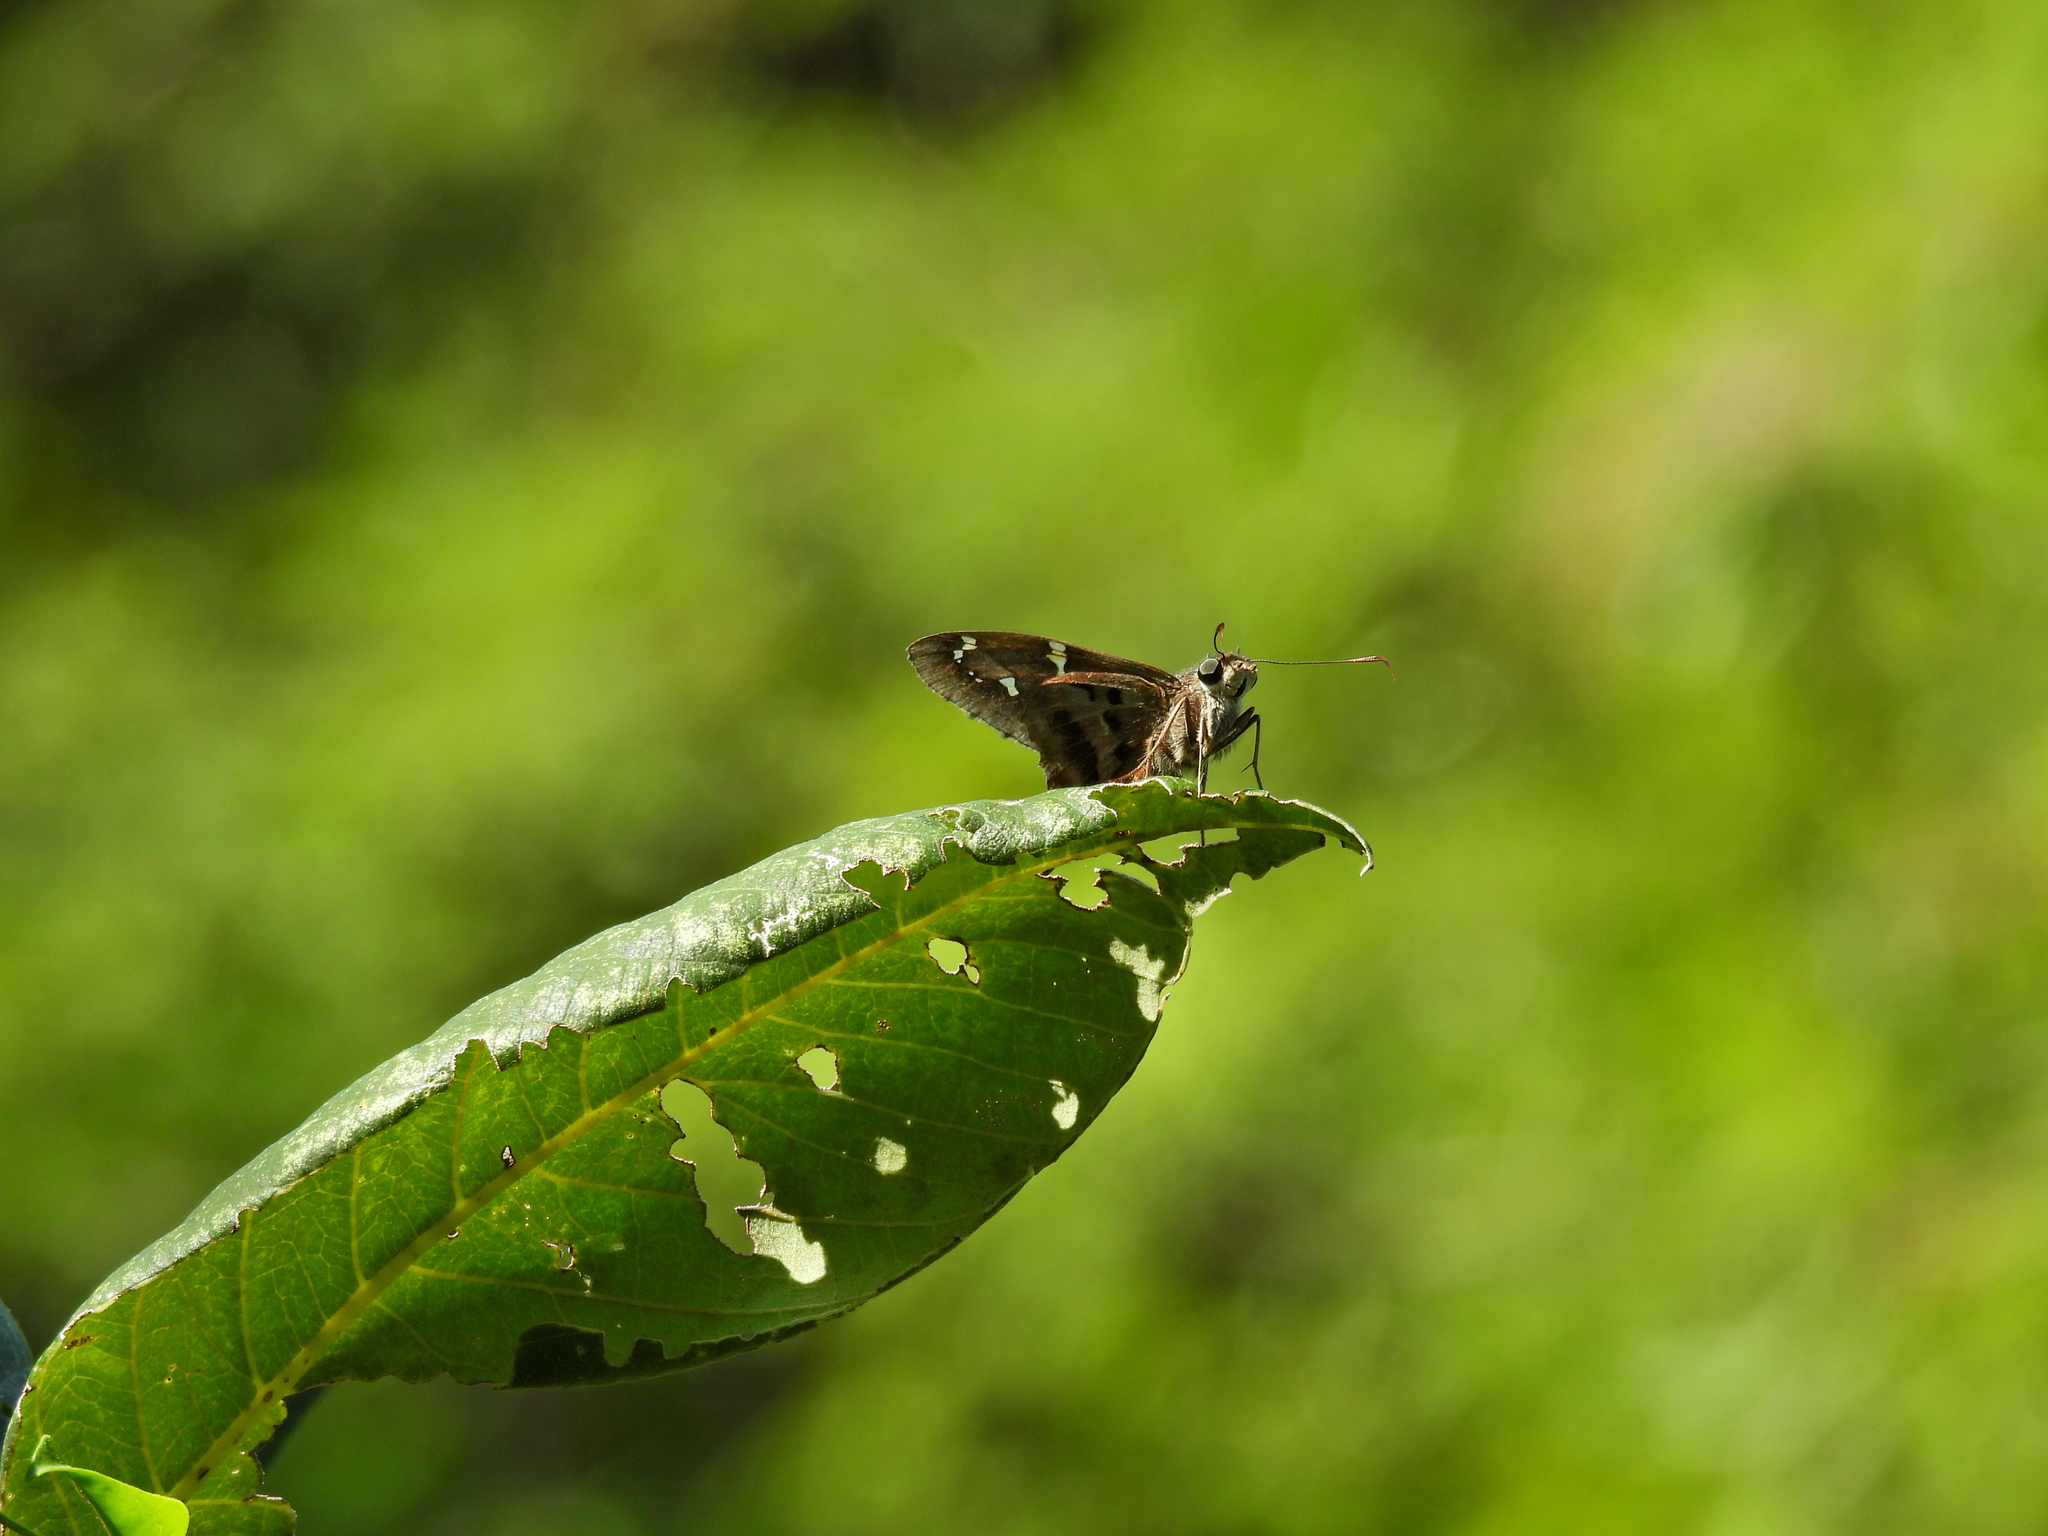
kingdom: Animalia
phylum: Arthropoda
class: Insecta
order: Lepidoptera
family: Hesperiidae
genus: Urbanus
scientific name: Urbanus proteus
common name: Long-tailed skipper
